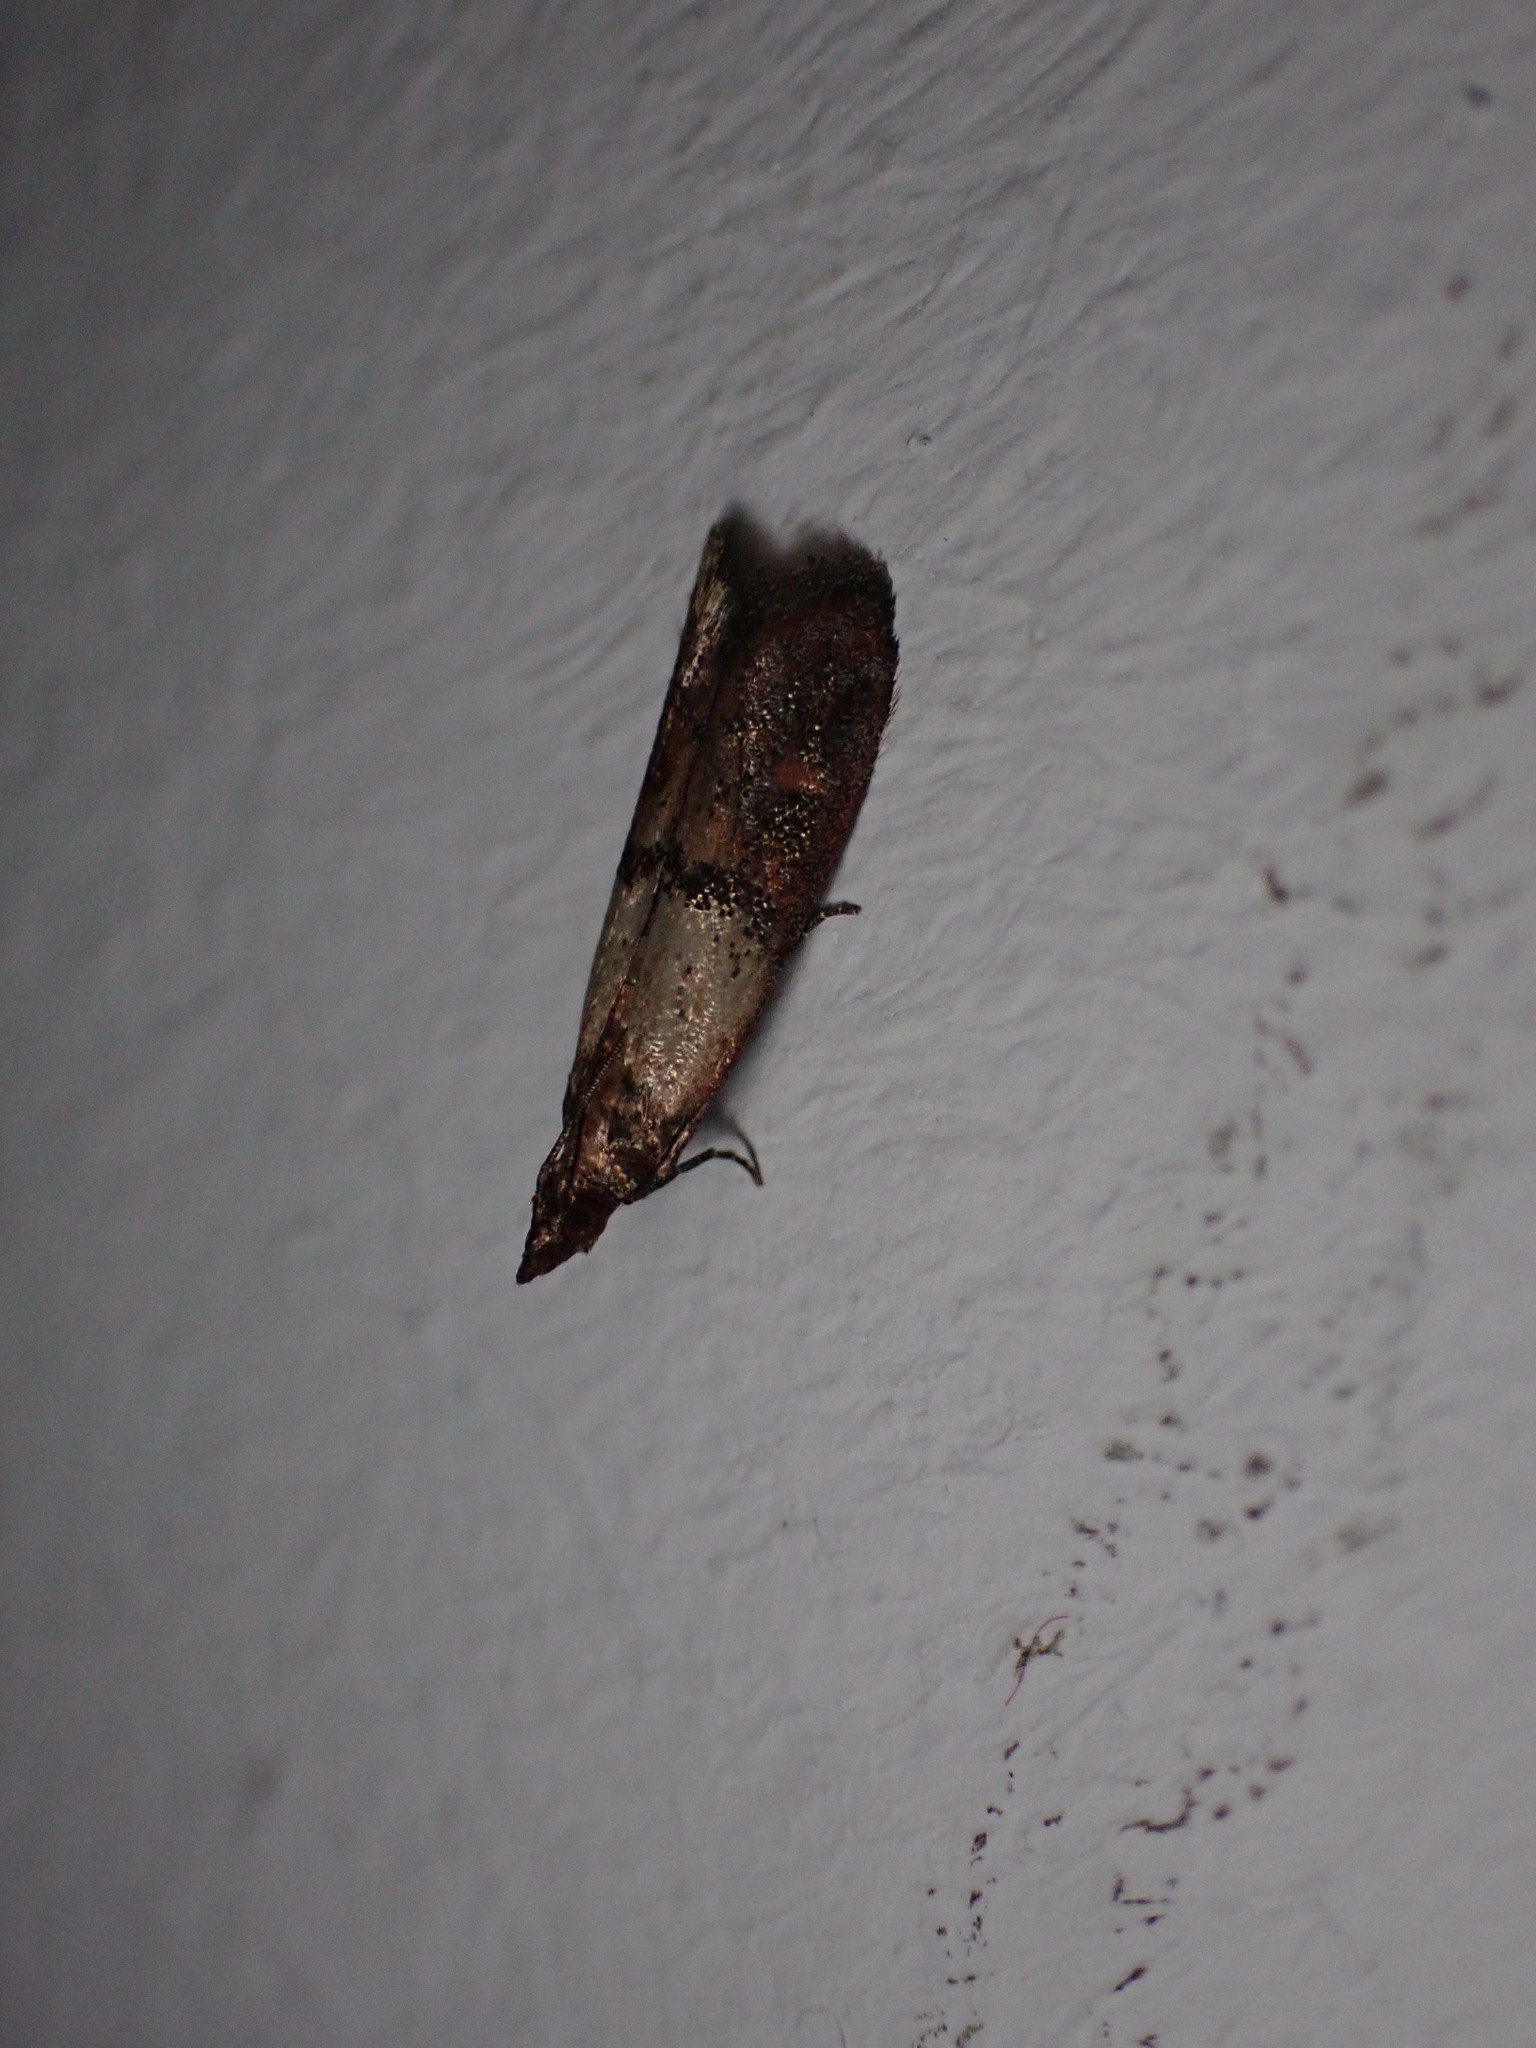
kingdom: Animalia
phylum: Arthropoda
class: Insecta
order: Lepidoptera
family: Pyralidae
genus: Plodia
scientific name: Plodia interpunctella
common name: Indian meal moth
